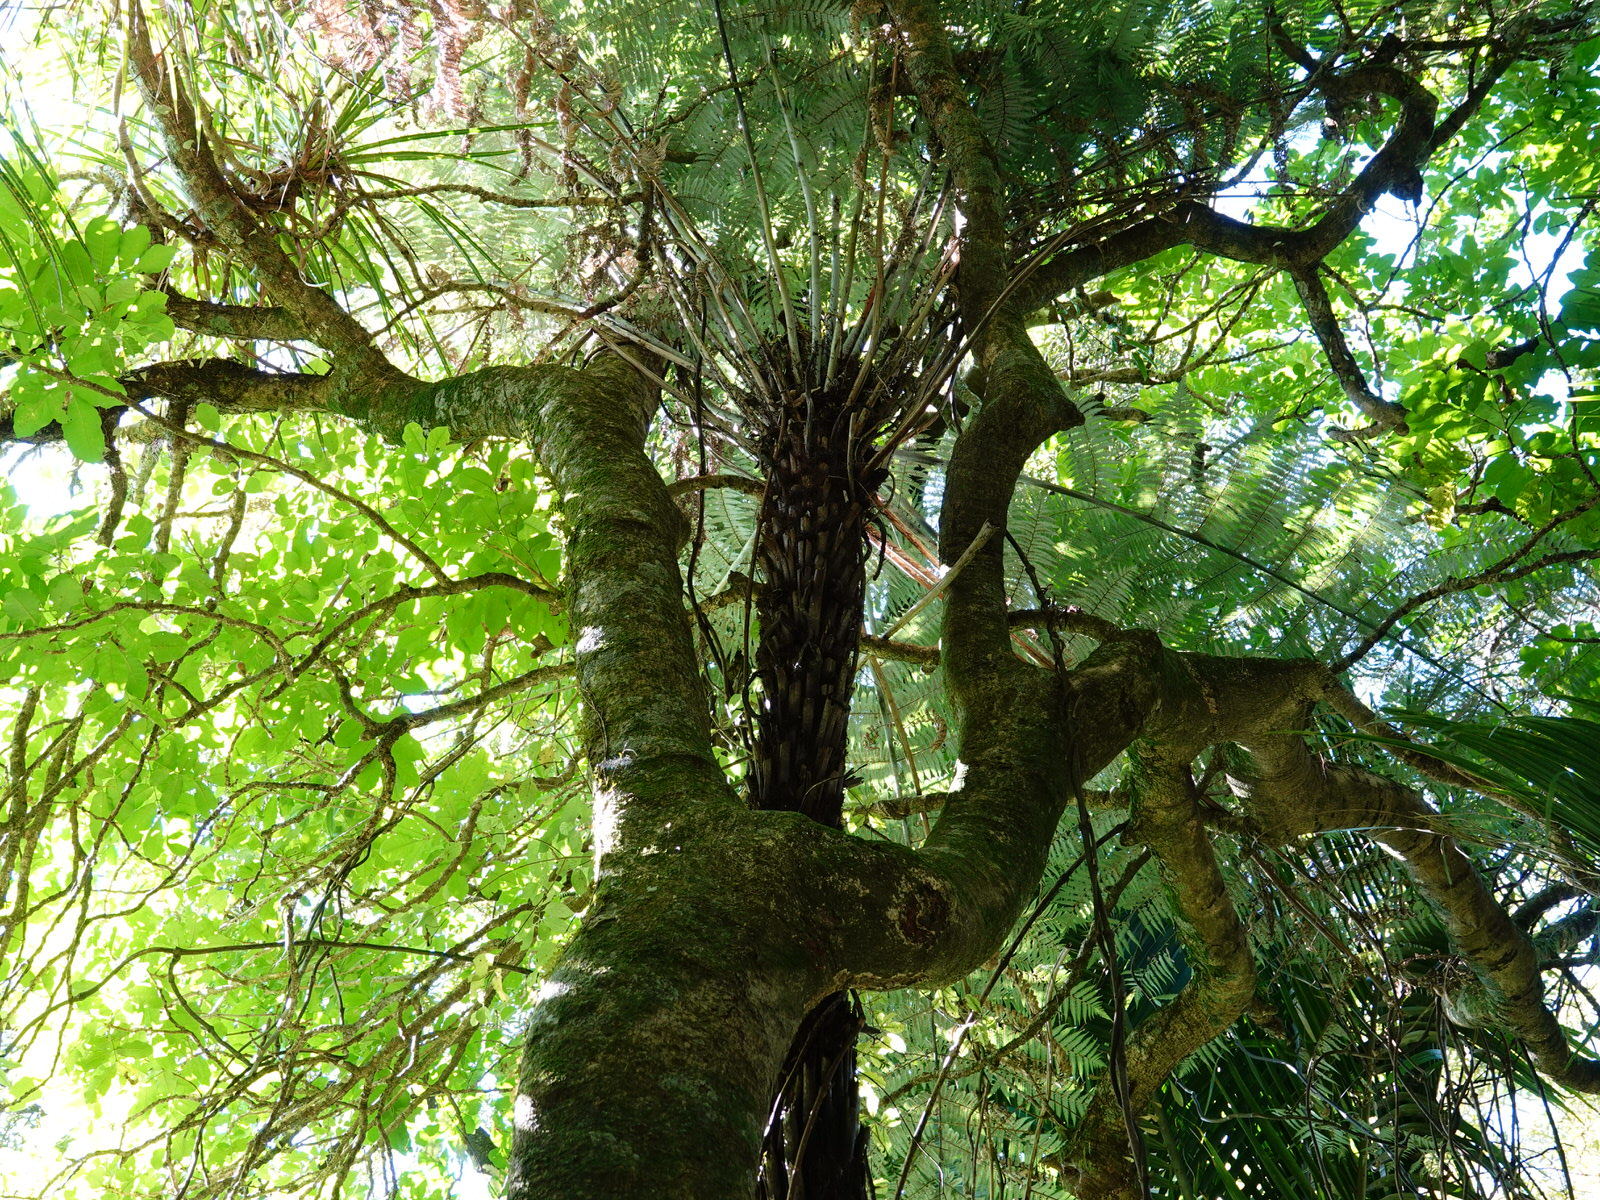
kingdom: Plantae
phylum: Tracheophyta
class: Polypodiopsida
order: Cyatheales
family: Cyatheaceae
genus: Alsophila
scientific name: Alsophila dealbata
